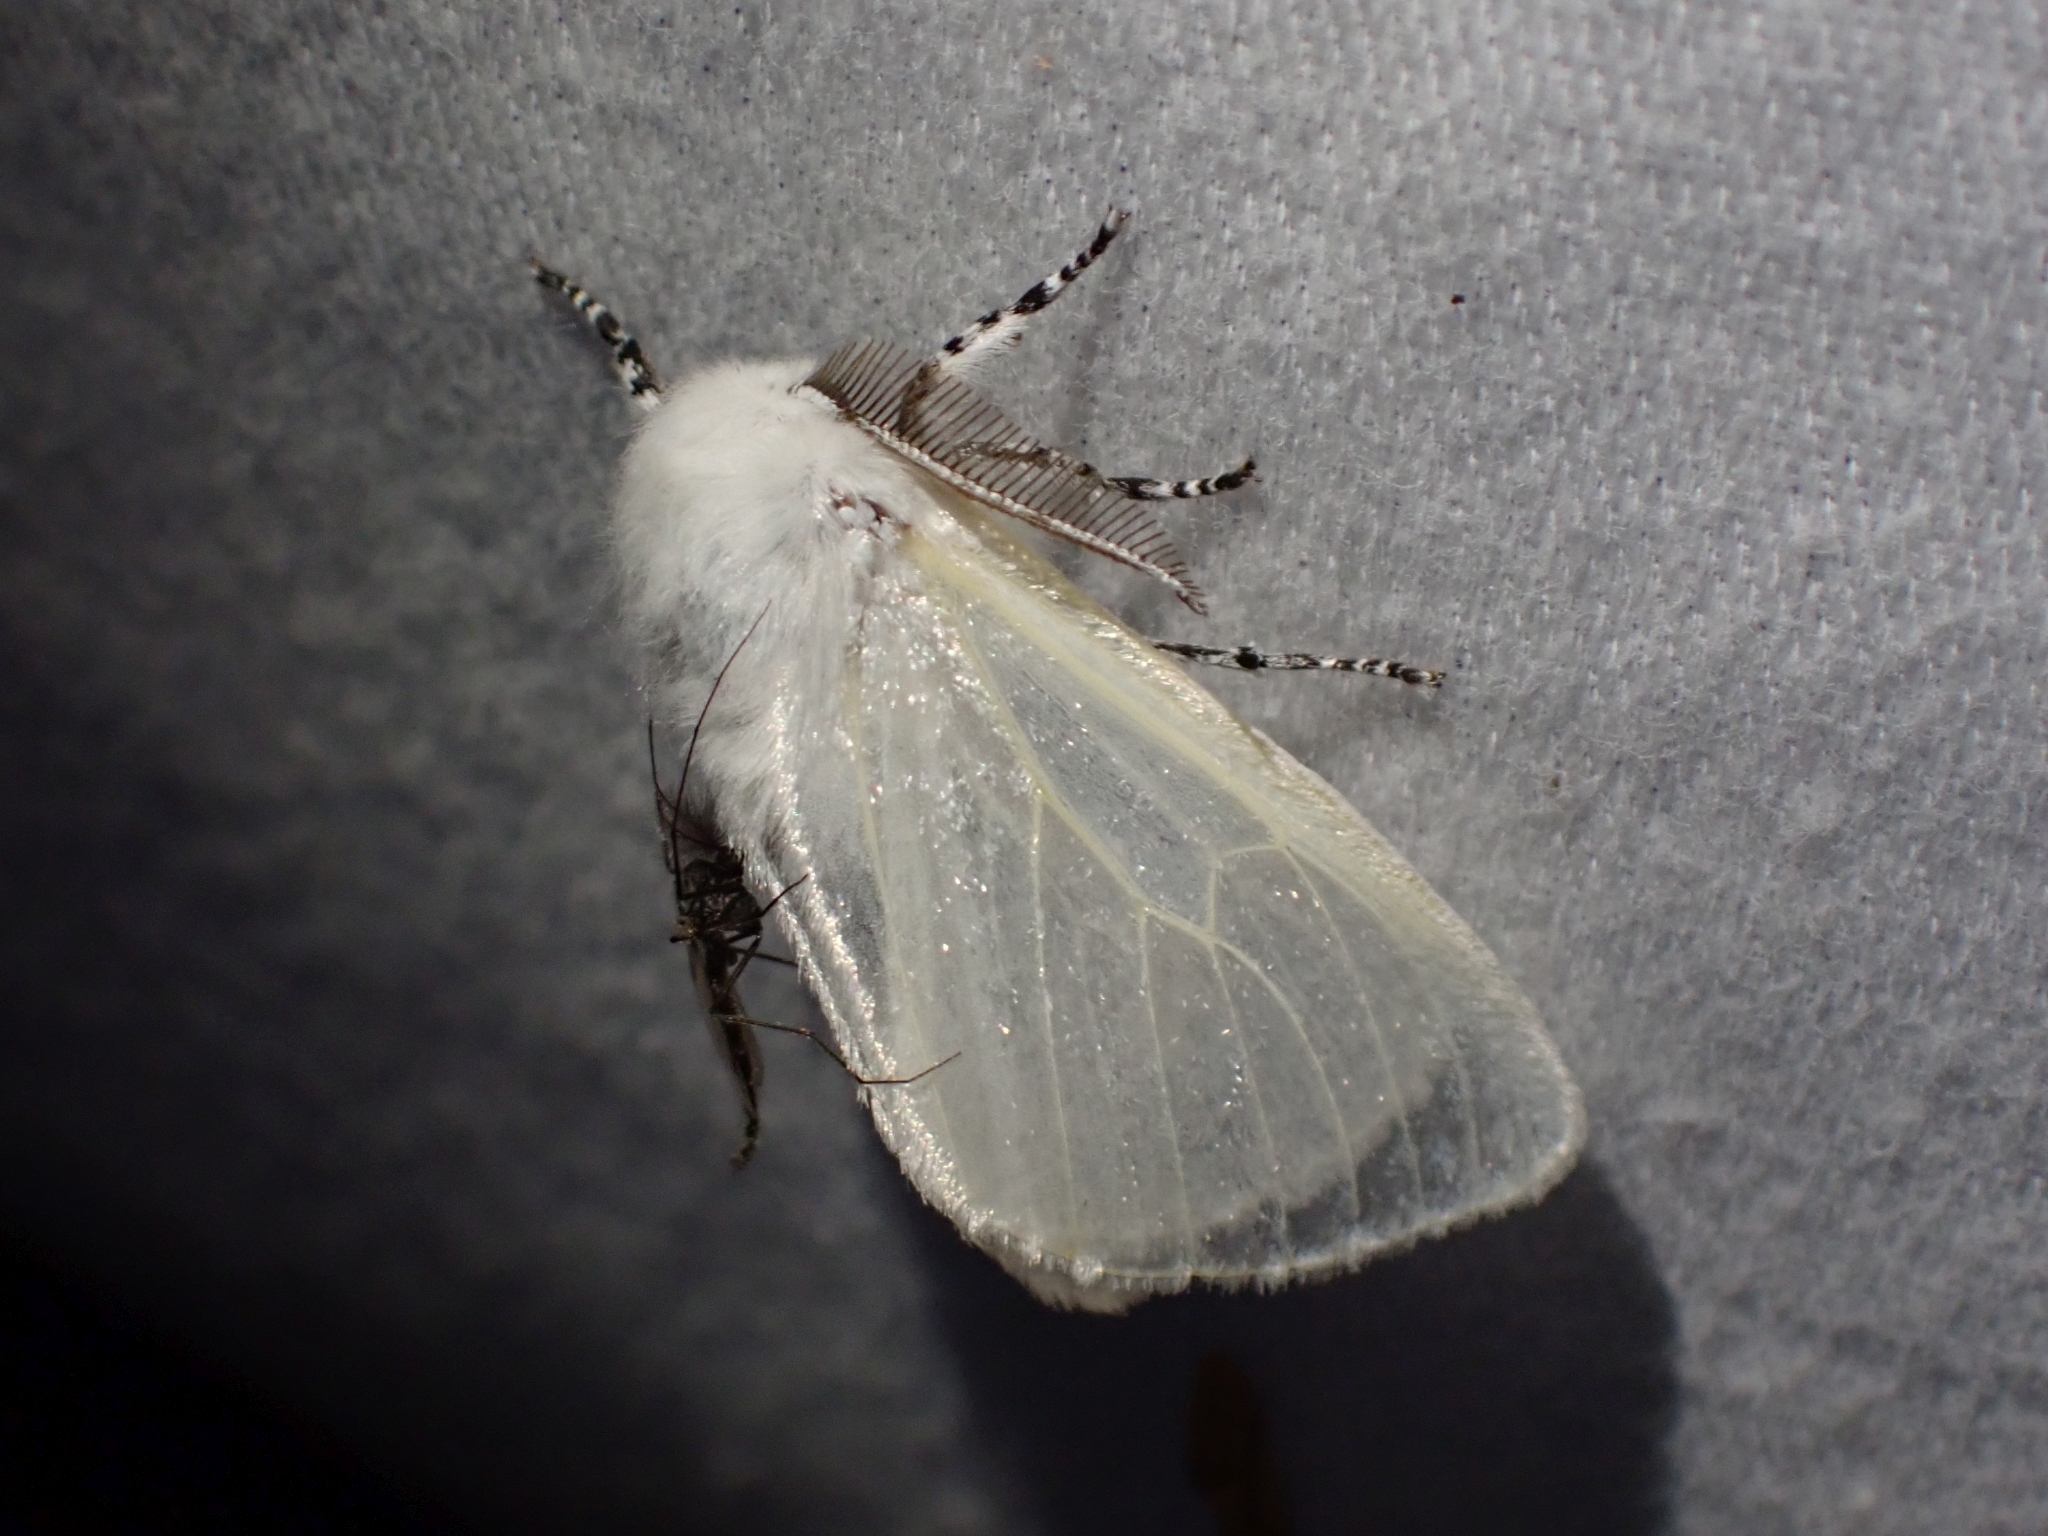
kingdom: Animalia
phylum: Arthropoda
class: Insecta
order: Lepidoptera
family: Erebidae
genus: Leucoma
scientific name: Leucoma salicis
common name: White satin moth
